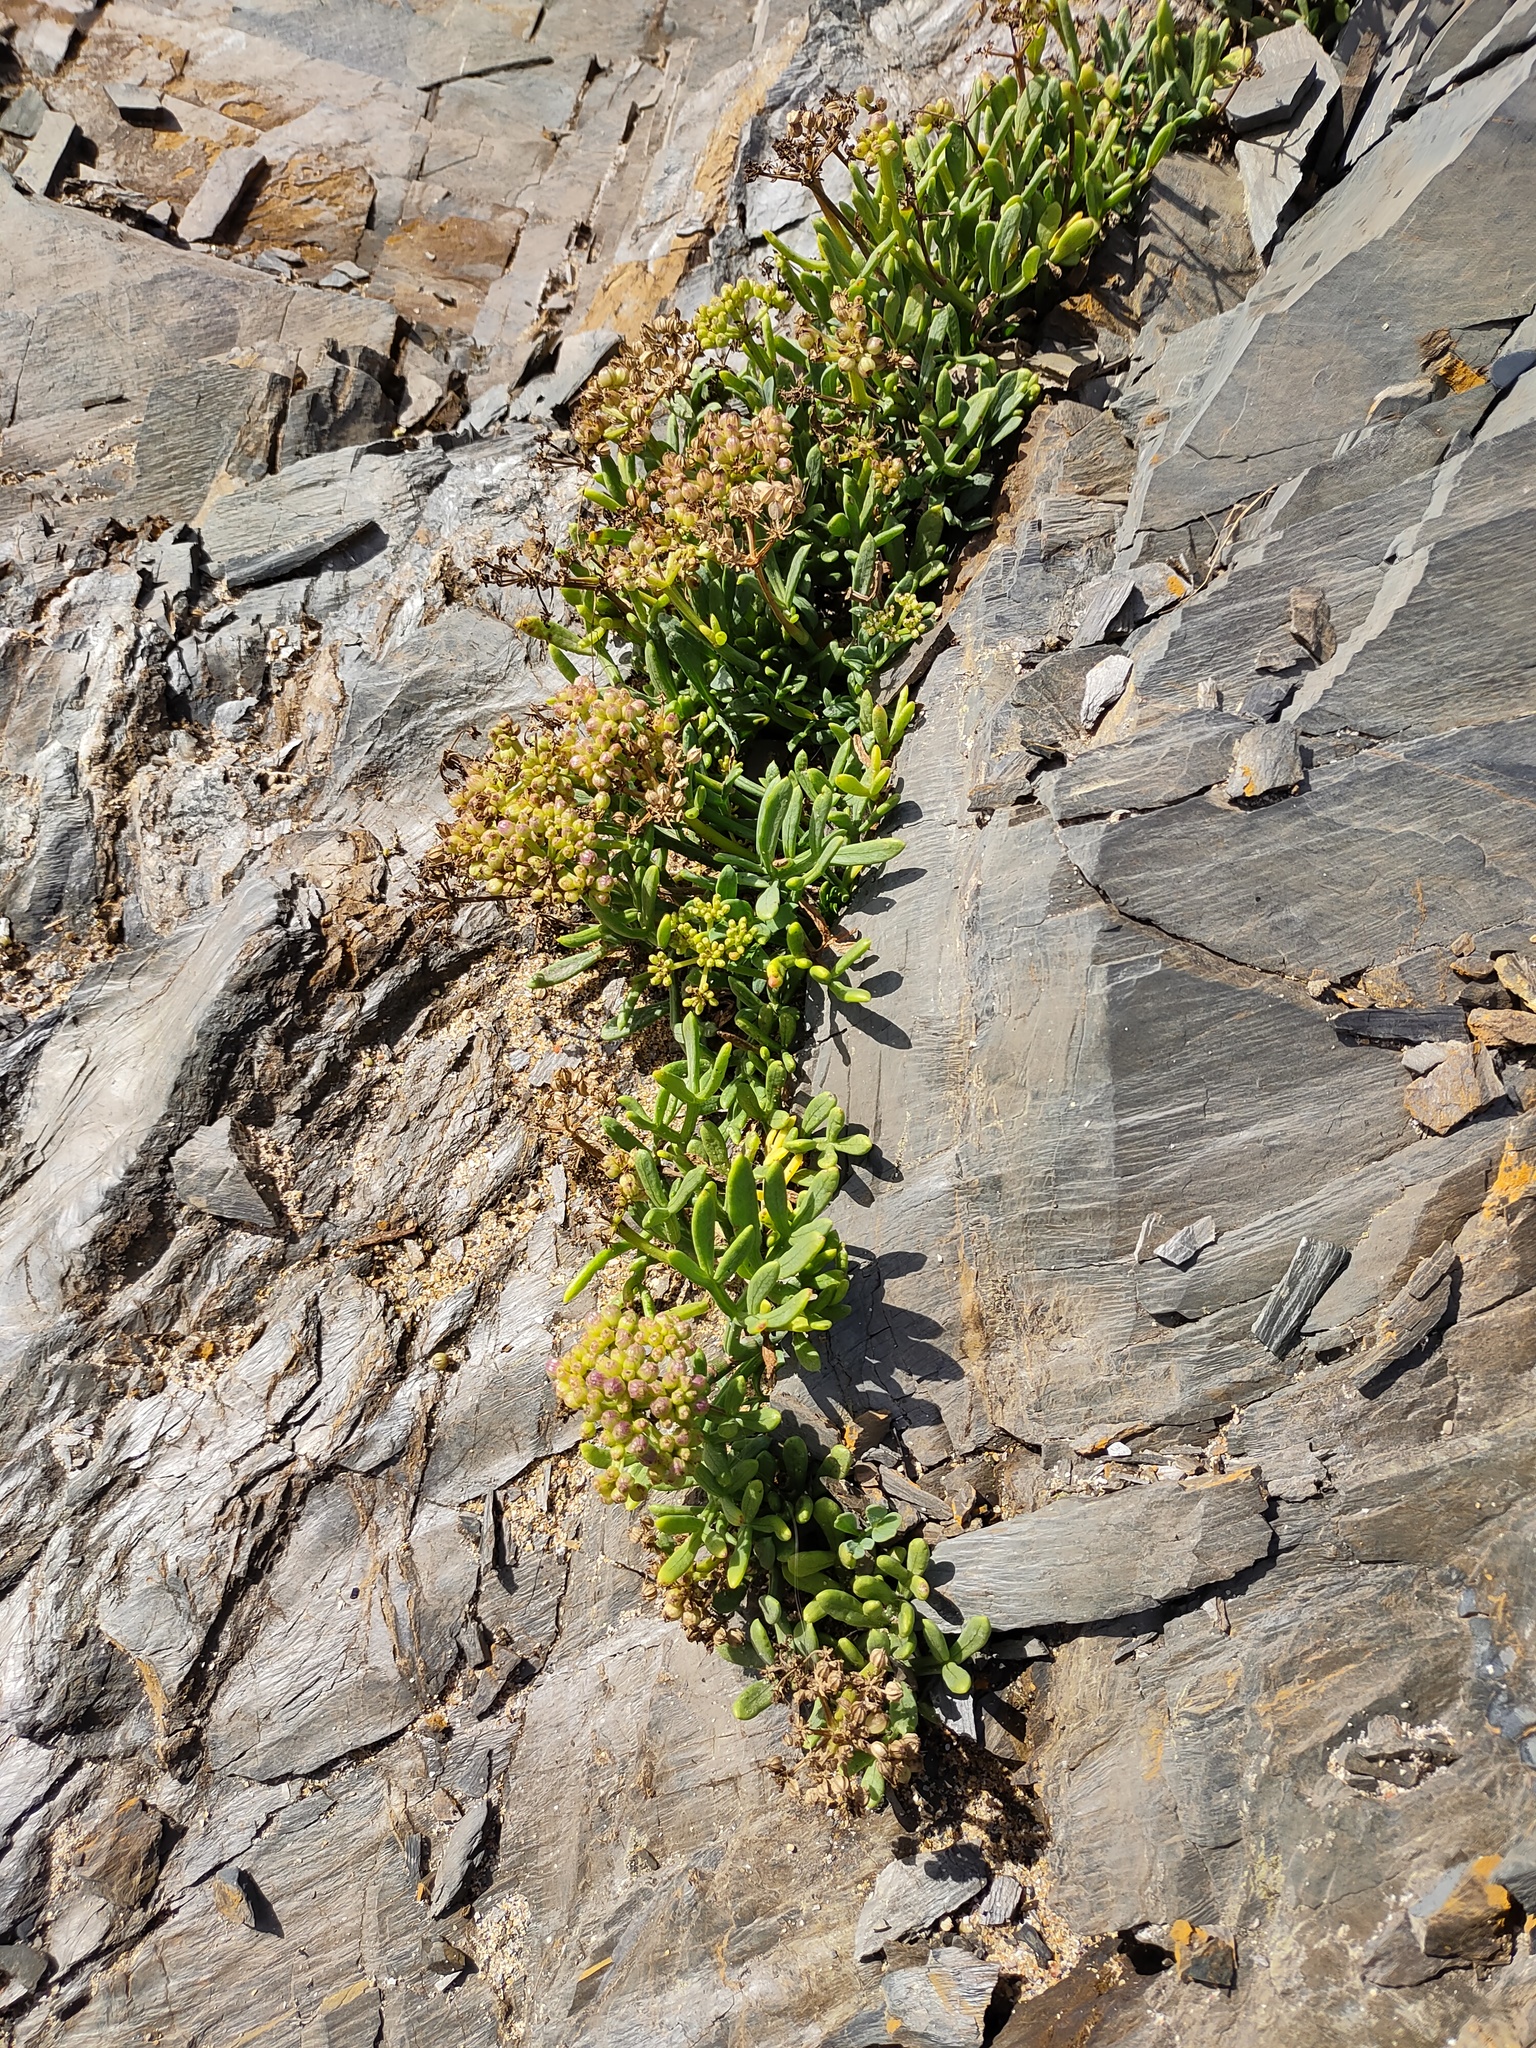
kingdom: Plantae
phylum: Tracheophyta
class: Magnoliopsida
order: Apiales
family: Apiaceae
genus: Crithmum
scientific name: Crithmum maritimum
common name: Rock samphire
